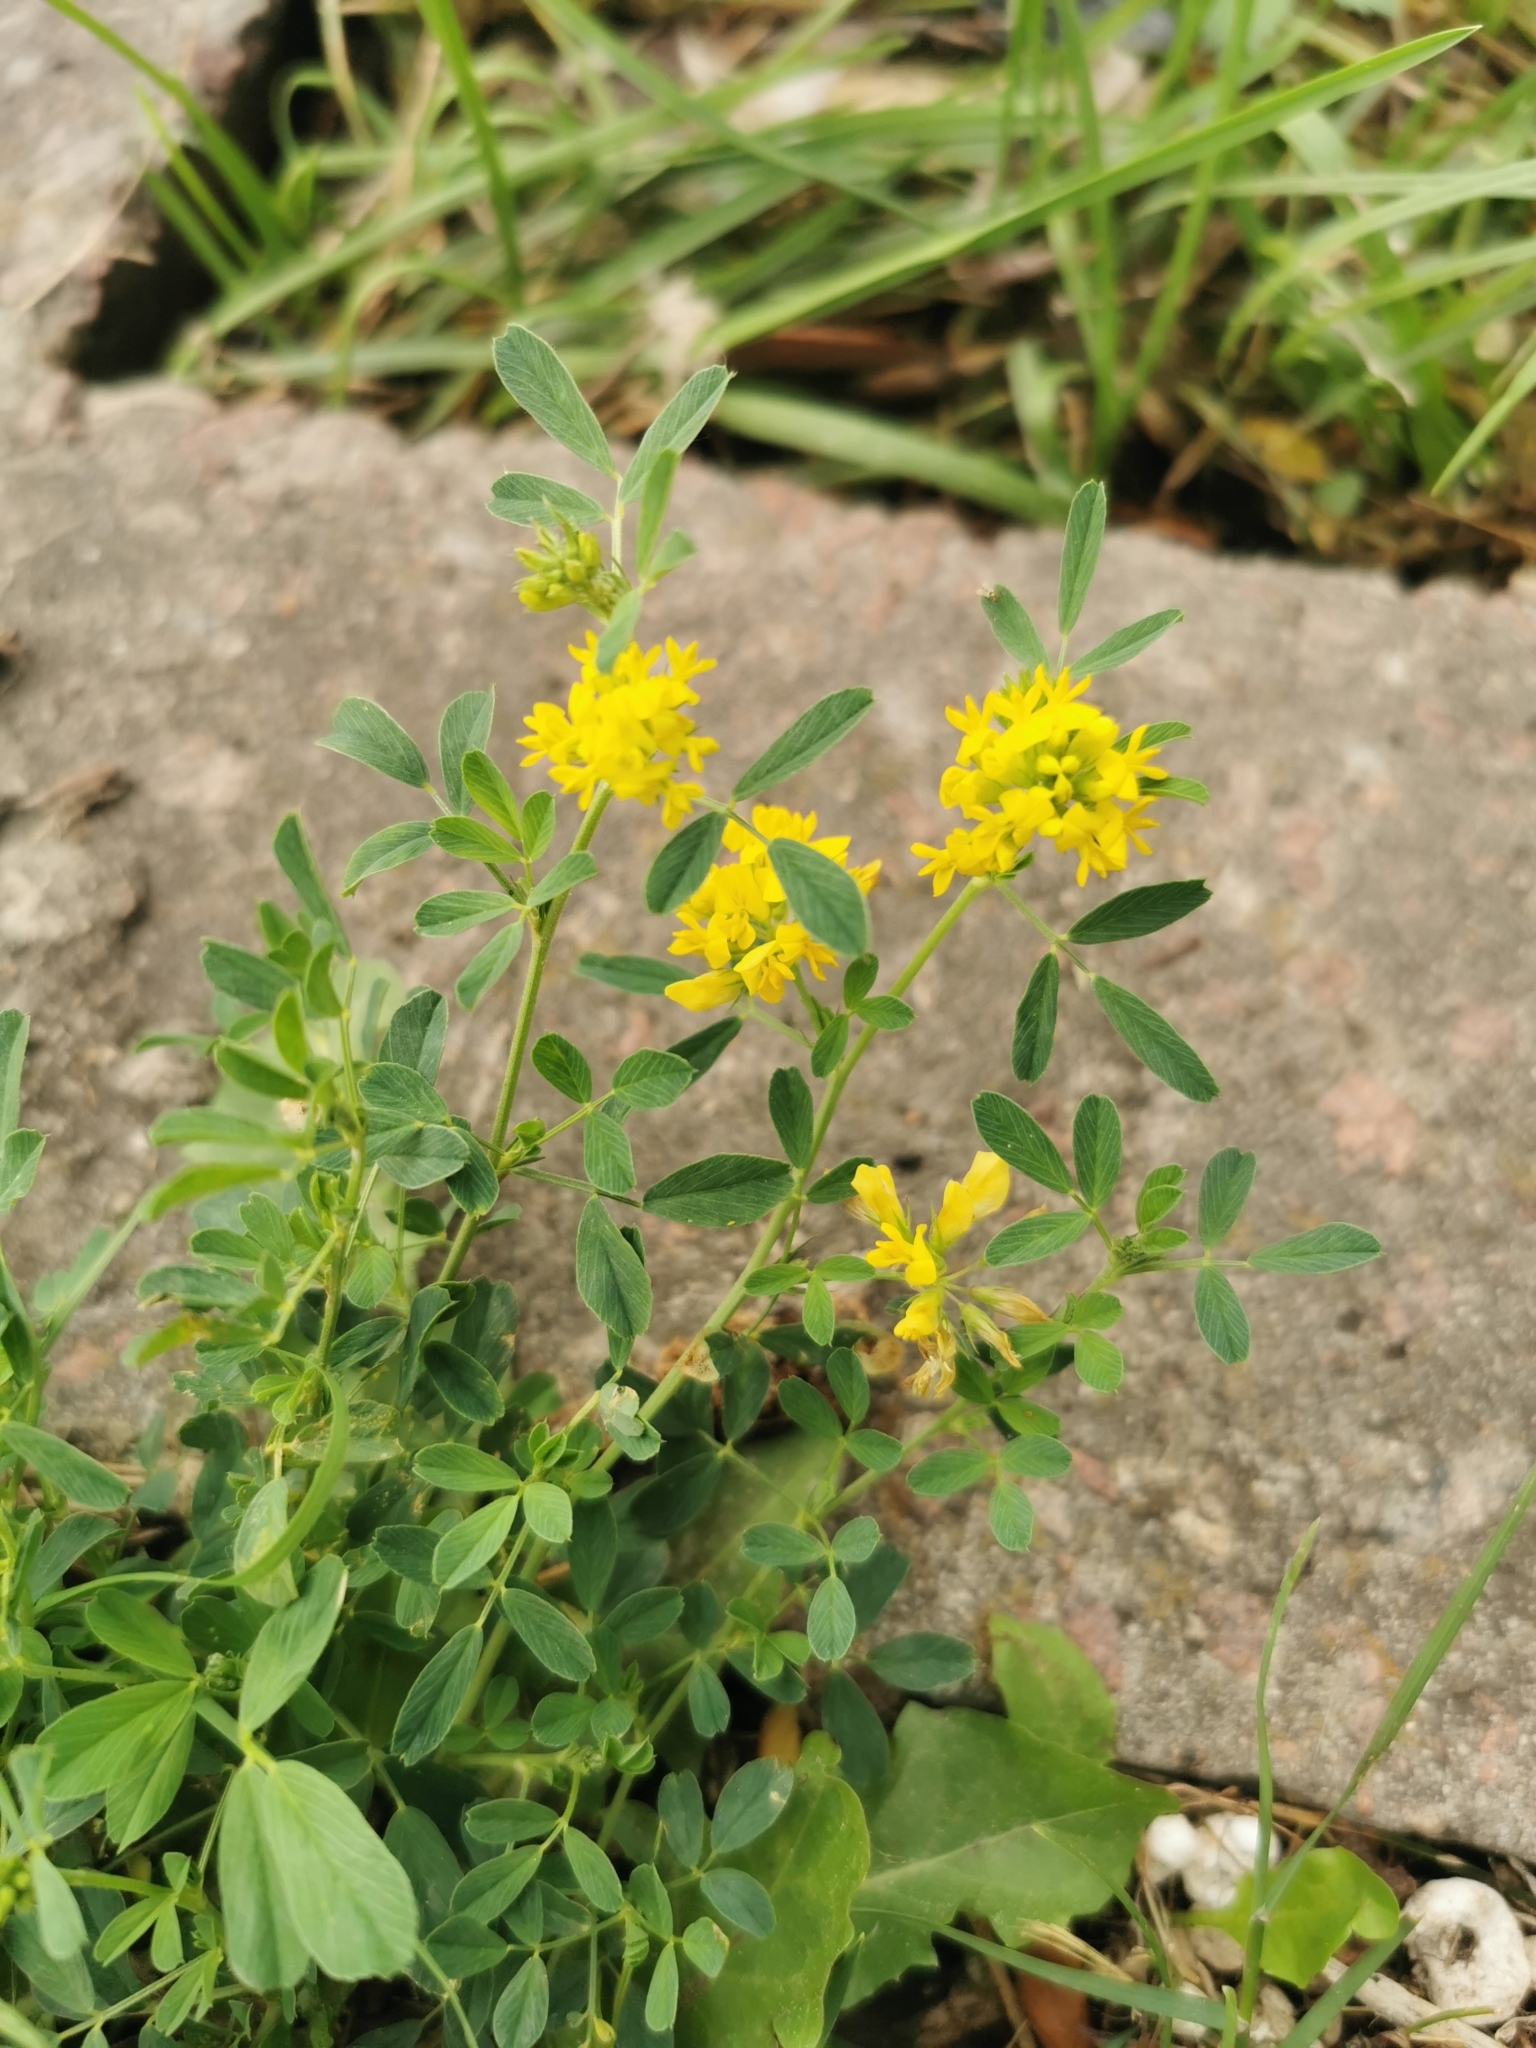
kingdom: Plantae
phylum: Tracheophyta
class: Magnoliopsida
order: Fabales
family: Fabaceae
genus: Medicago
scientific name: Medicago falcata
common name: Sickle medick
